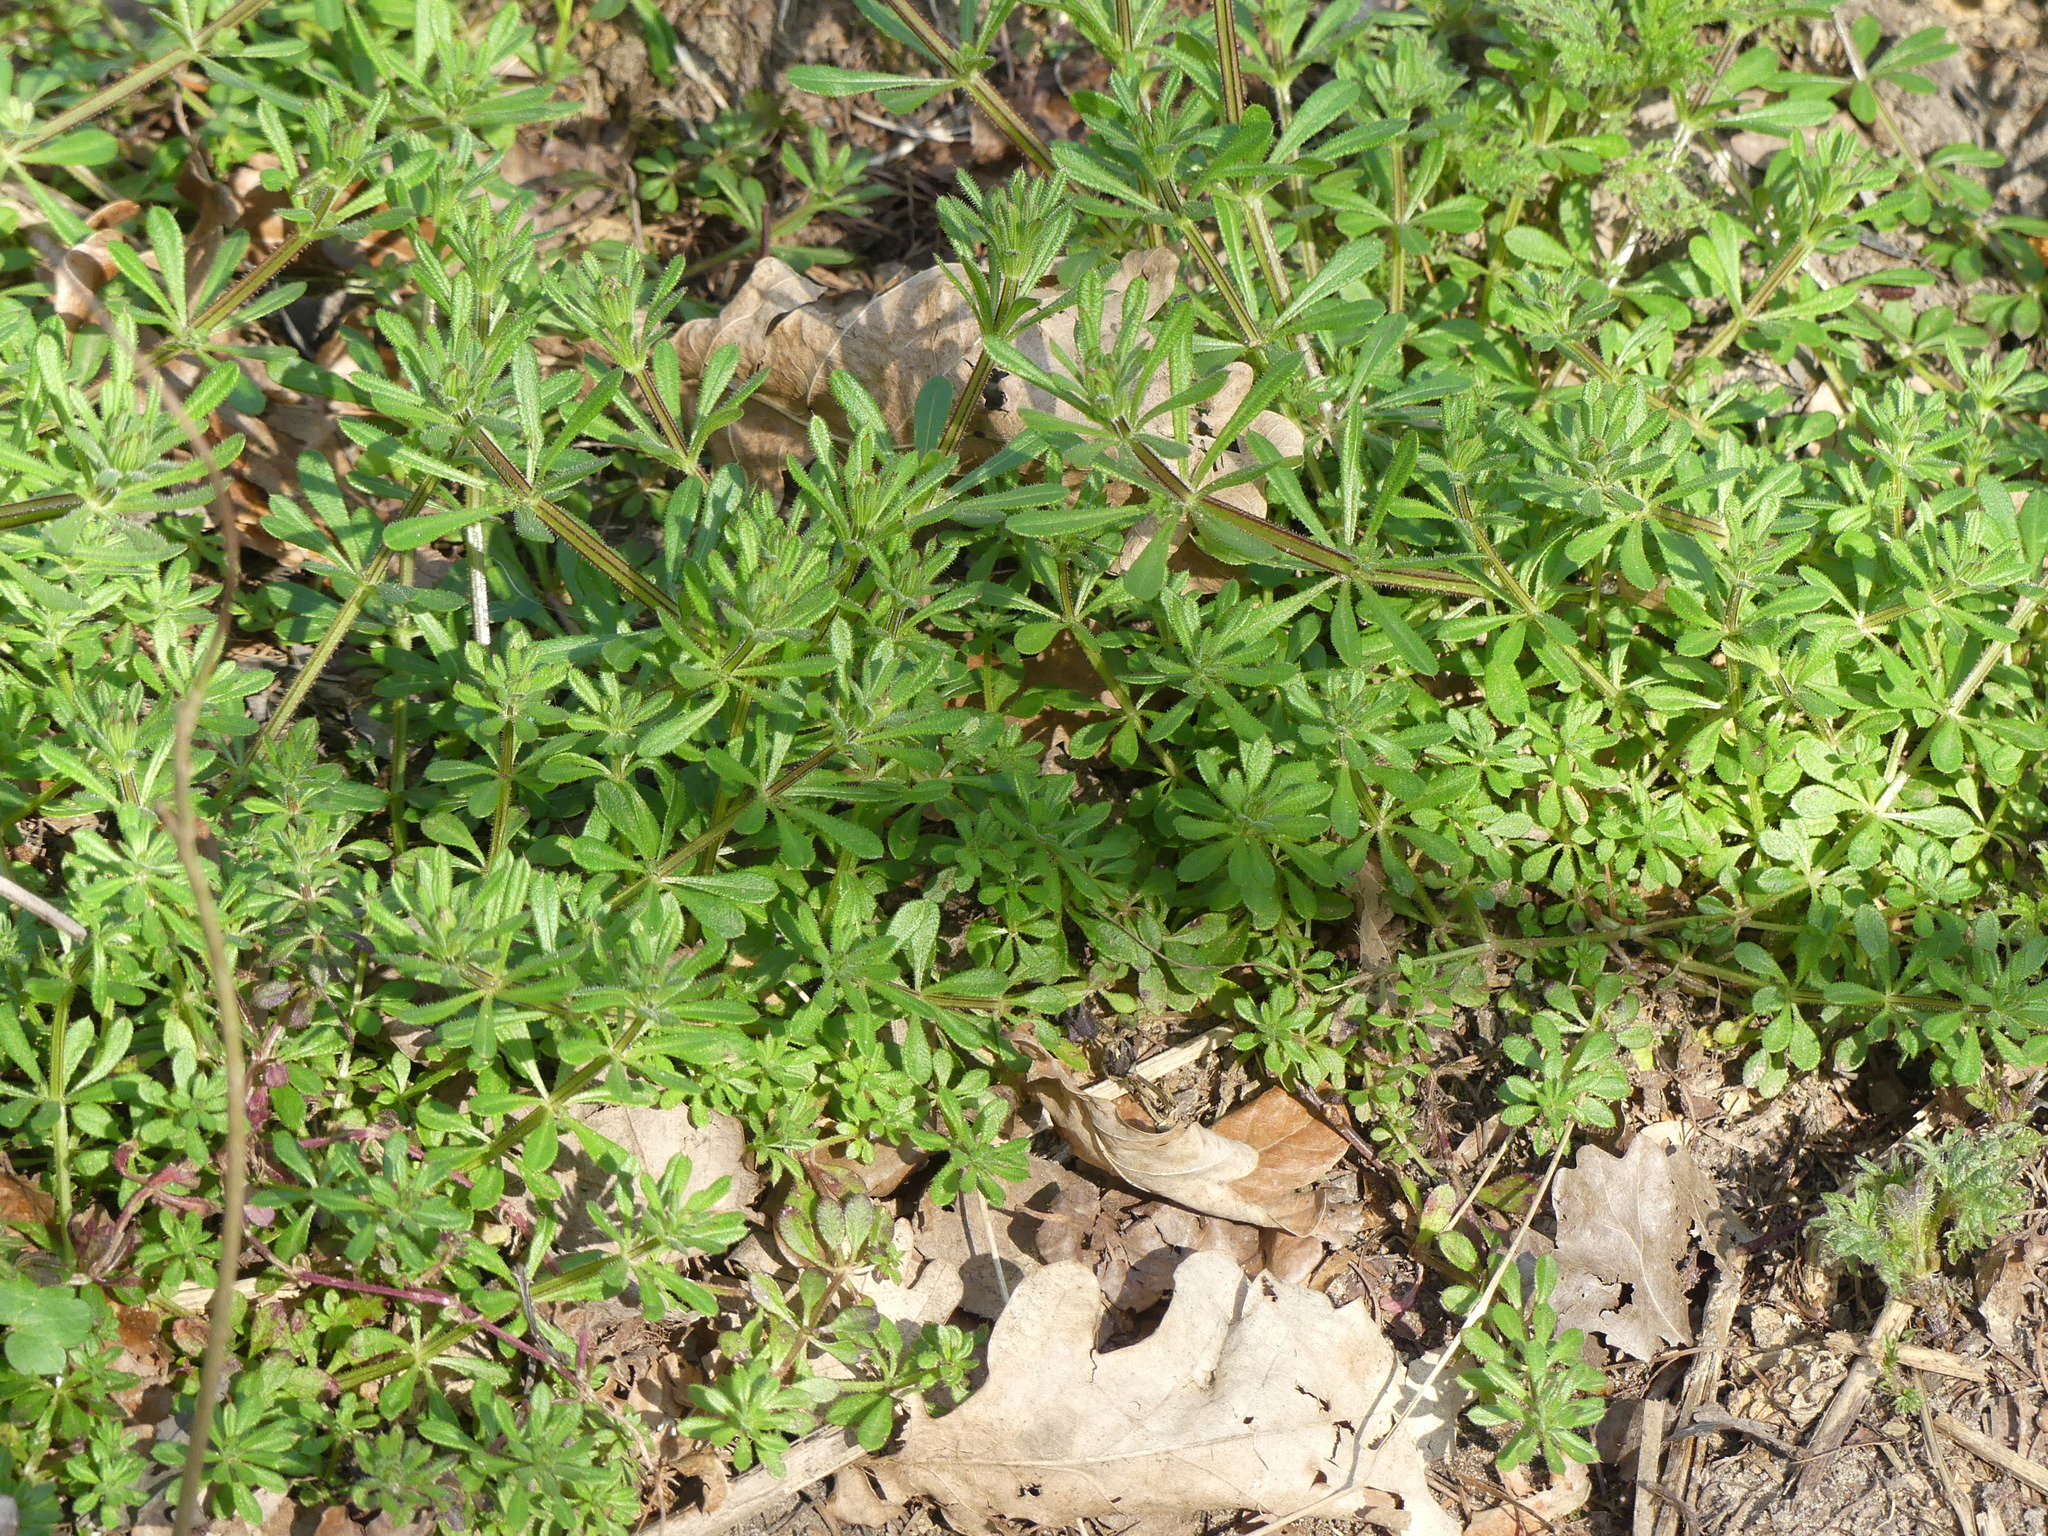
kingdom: Plantae
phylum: Tracheophyta
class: Magnoliopsida
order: Gentianales
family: Rubiaceae
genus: Galium
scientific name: Galium aparine
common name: Cleavers
